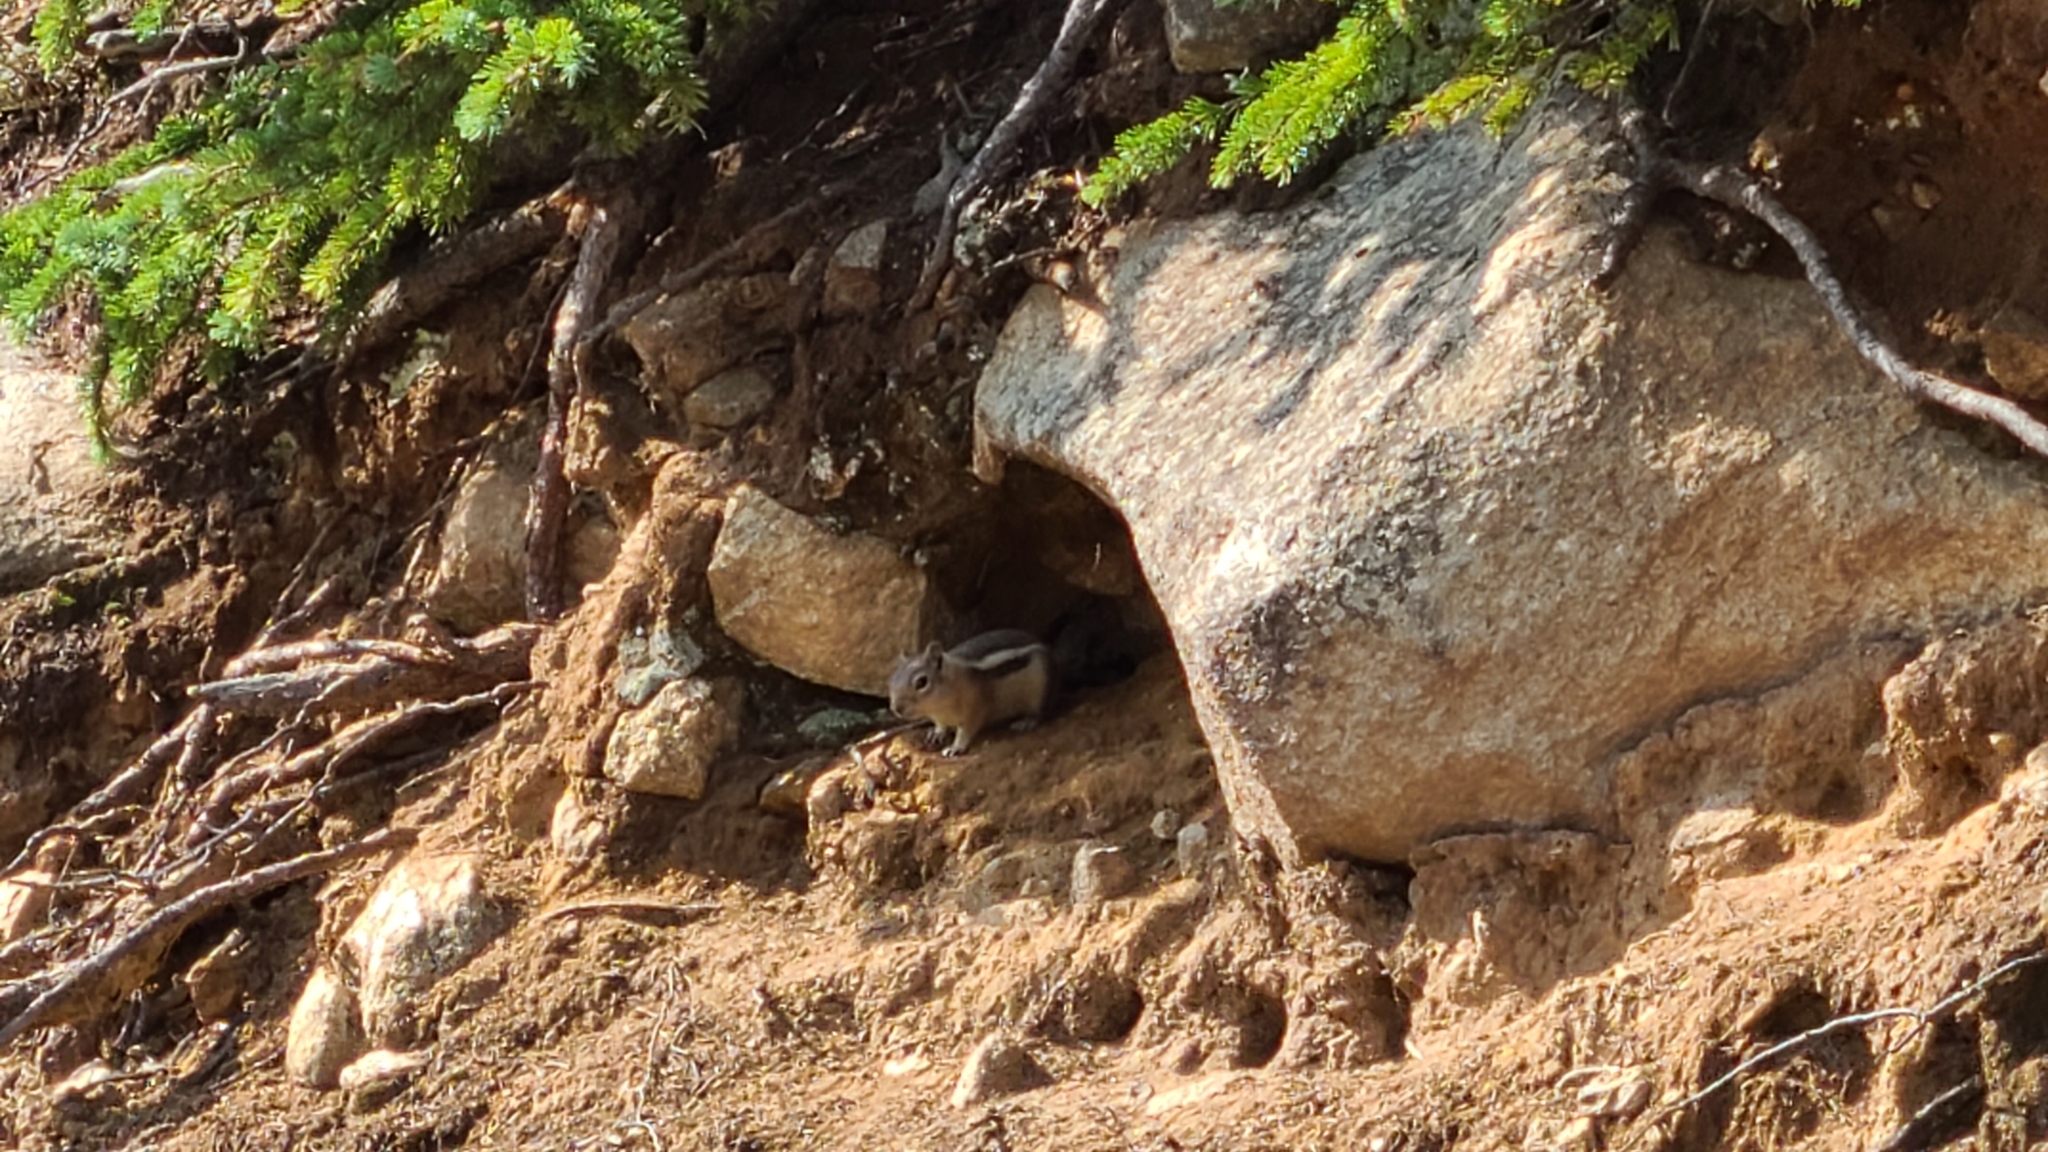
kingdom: Animalia
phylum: Chordata
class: Mammalia
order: Rodentia
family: Sciuridae
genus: Callospermophilus
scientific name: Callospermophilus lateralis
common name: Golden-mantled ground squirrel
